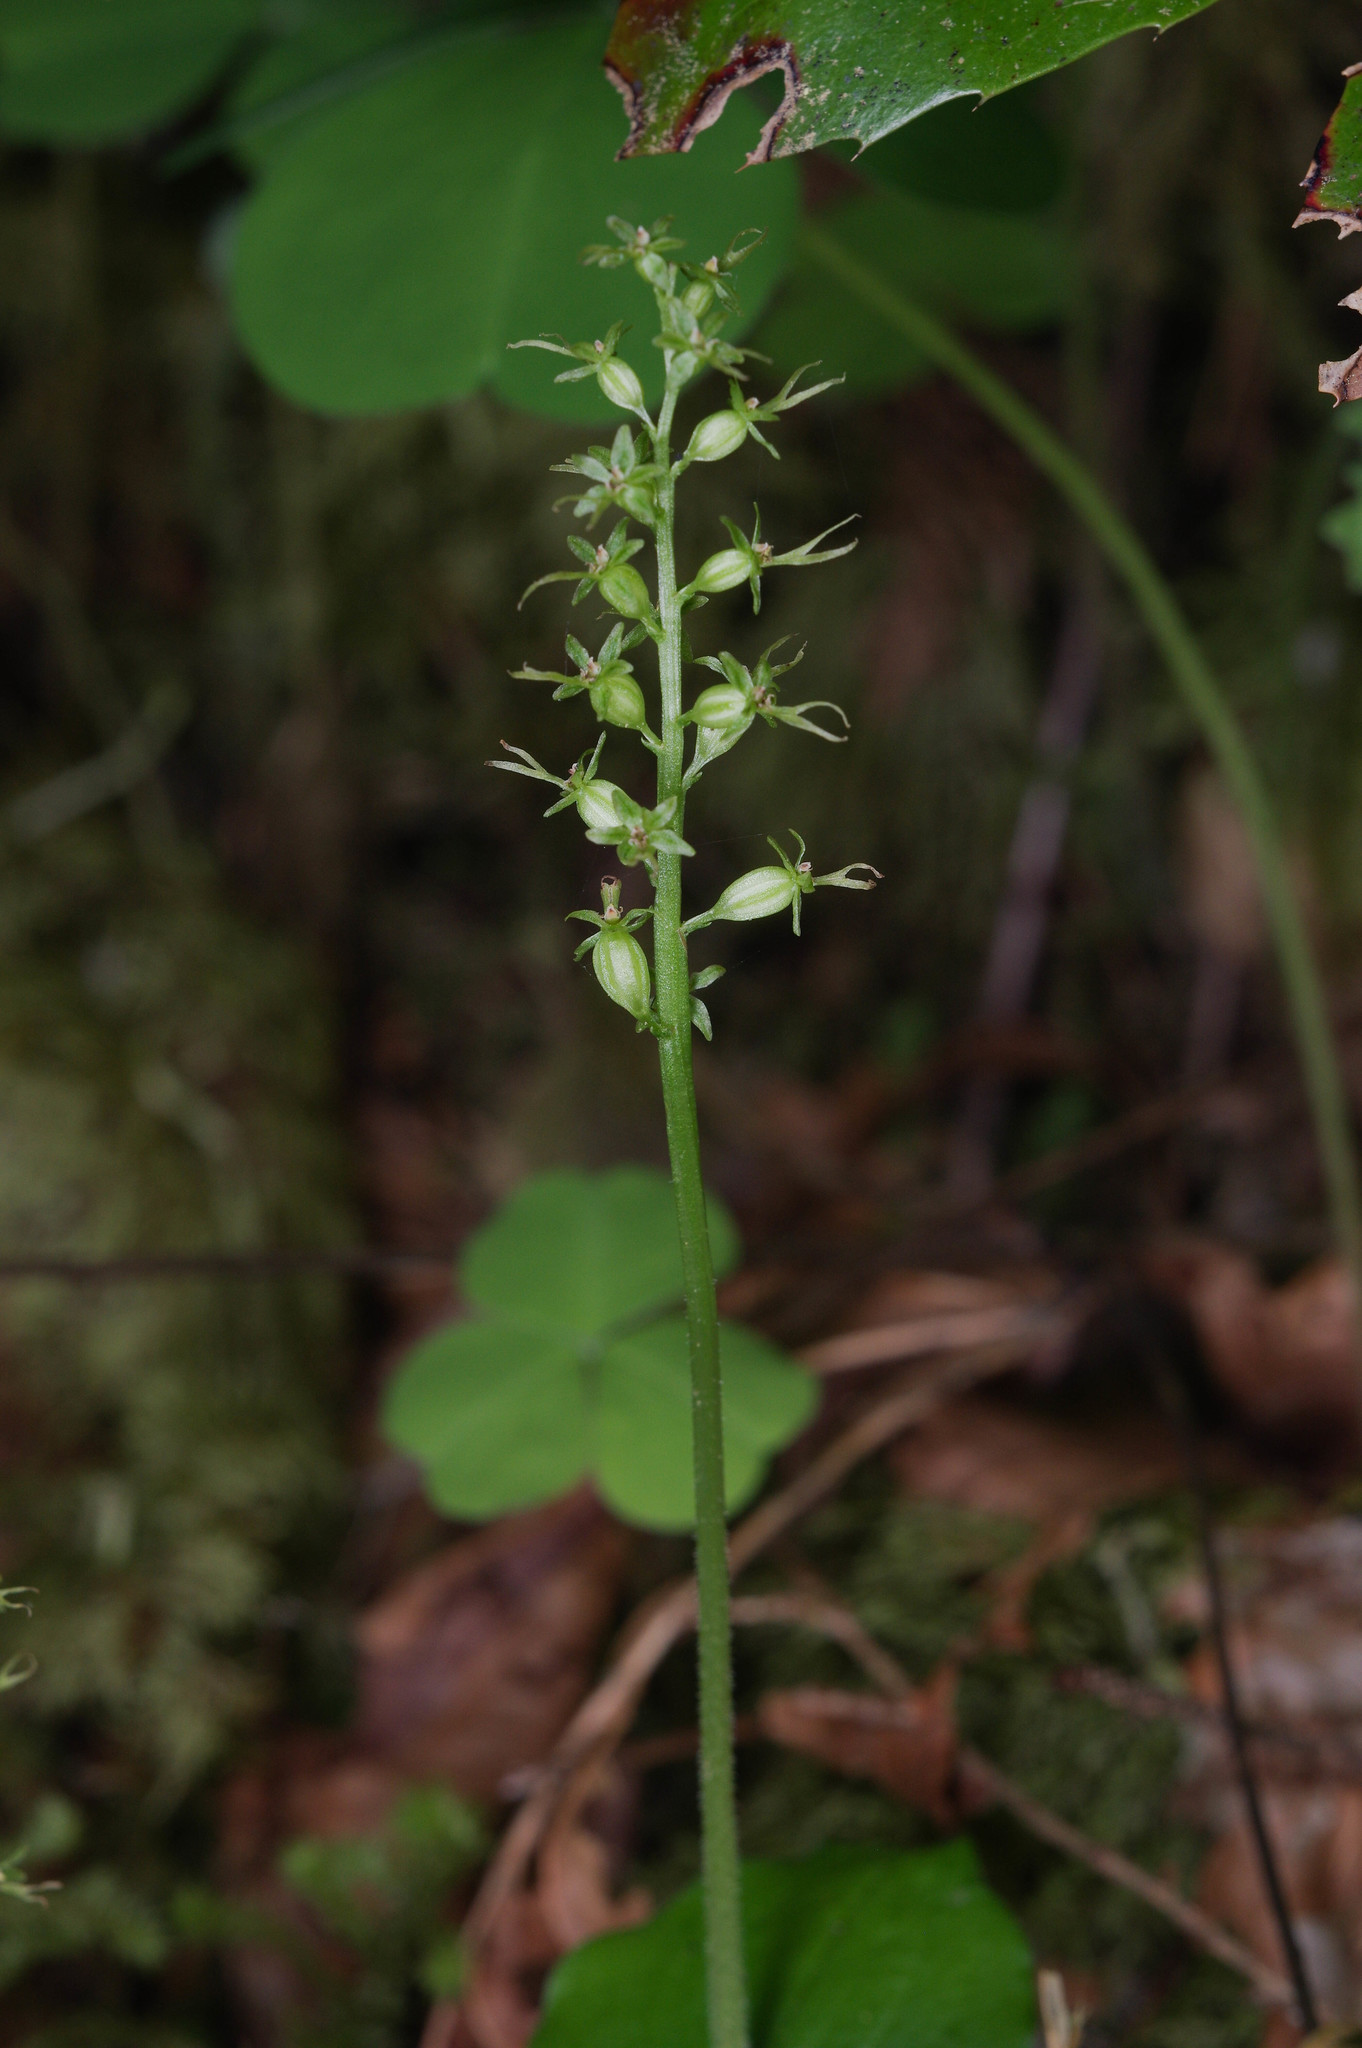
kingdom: Plantae
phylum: Tracheophyta
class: Liliopsida
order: Asparagales
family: Orchidaceae
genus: Neottia
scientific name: Neottia cordata
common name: Lesser twayblade
